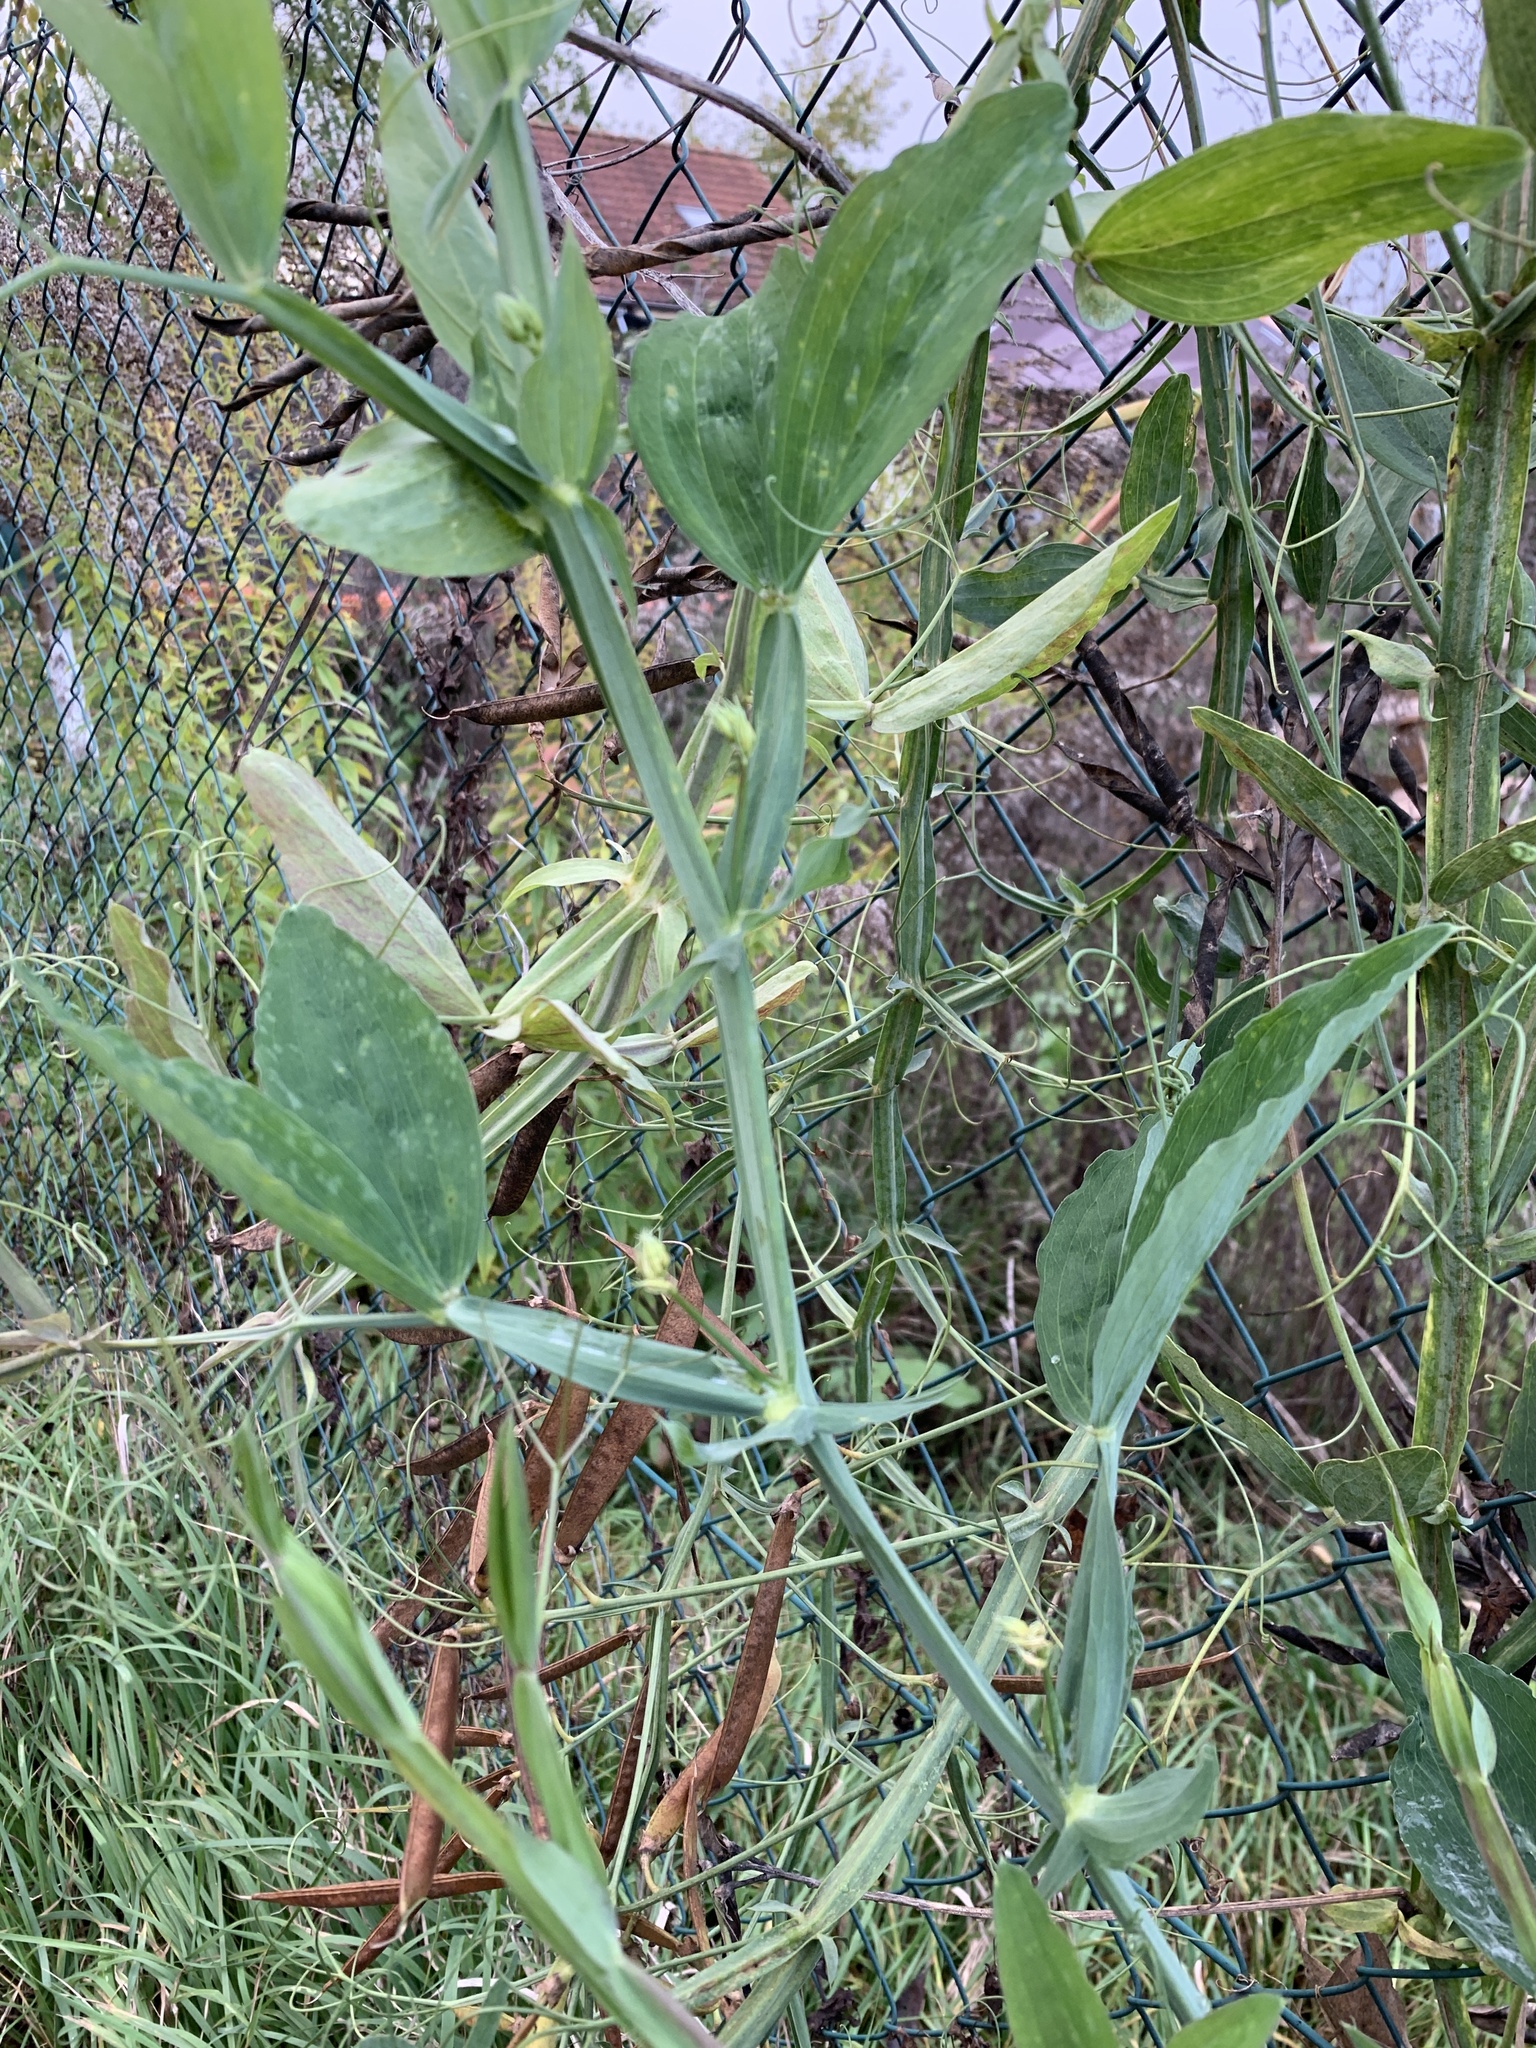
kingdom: Plantae
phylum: Tracheophyta
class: Magnoliopsida
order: Fabales
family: Fabaceae
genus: Lathyrus
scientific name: Lathyrus latifolius
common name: Perennial pea
